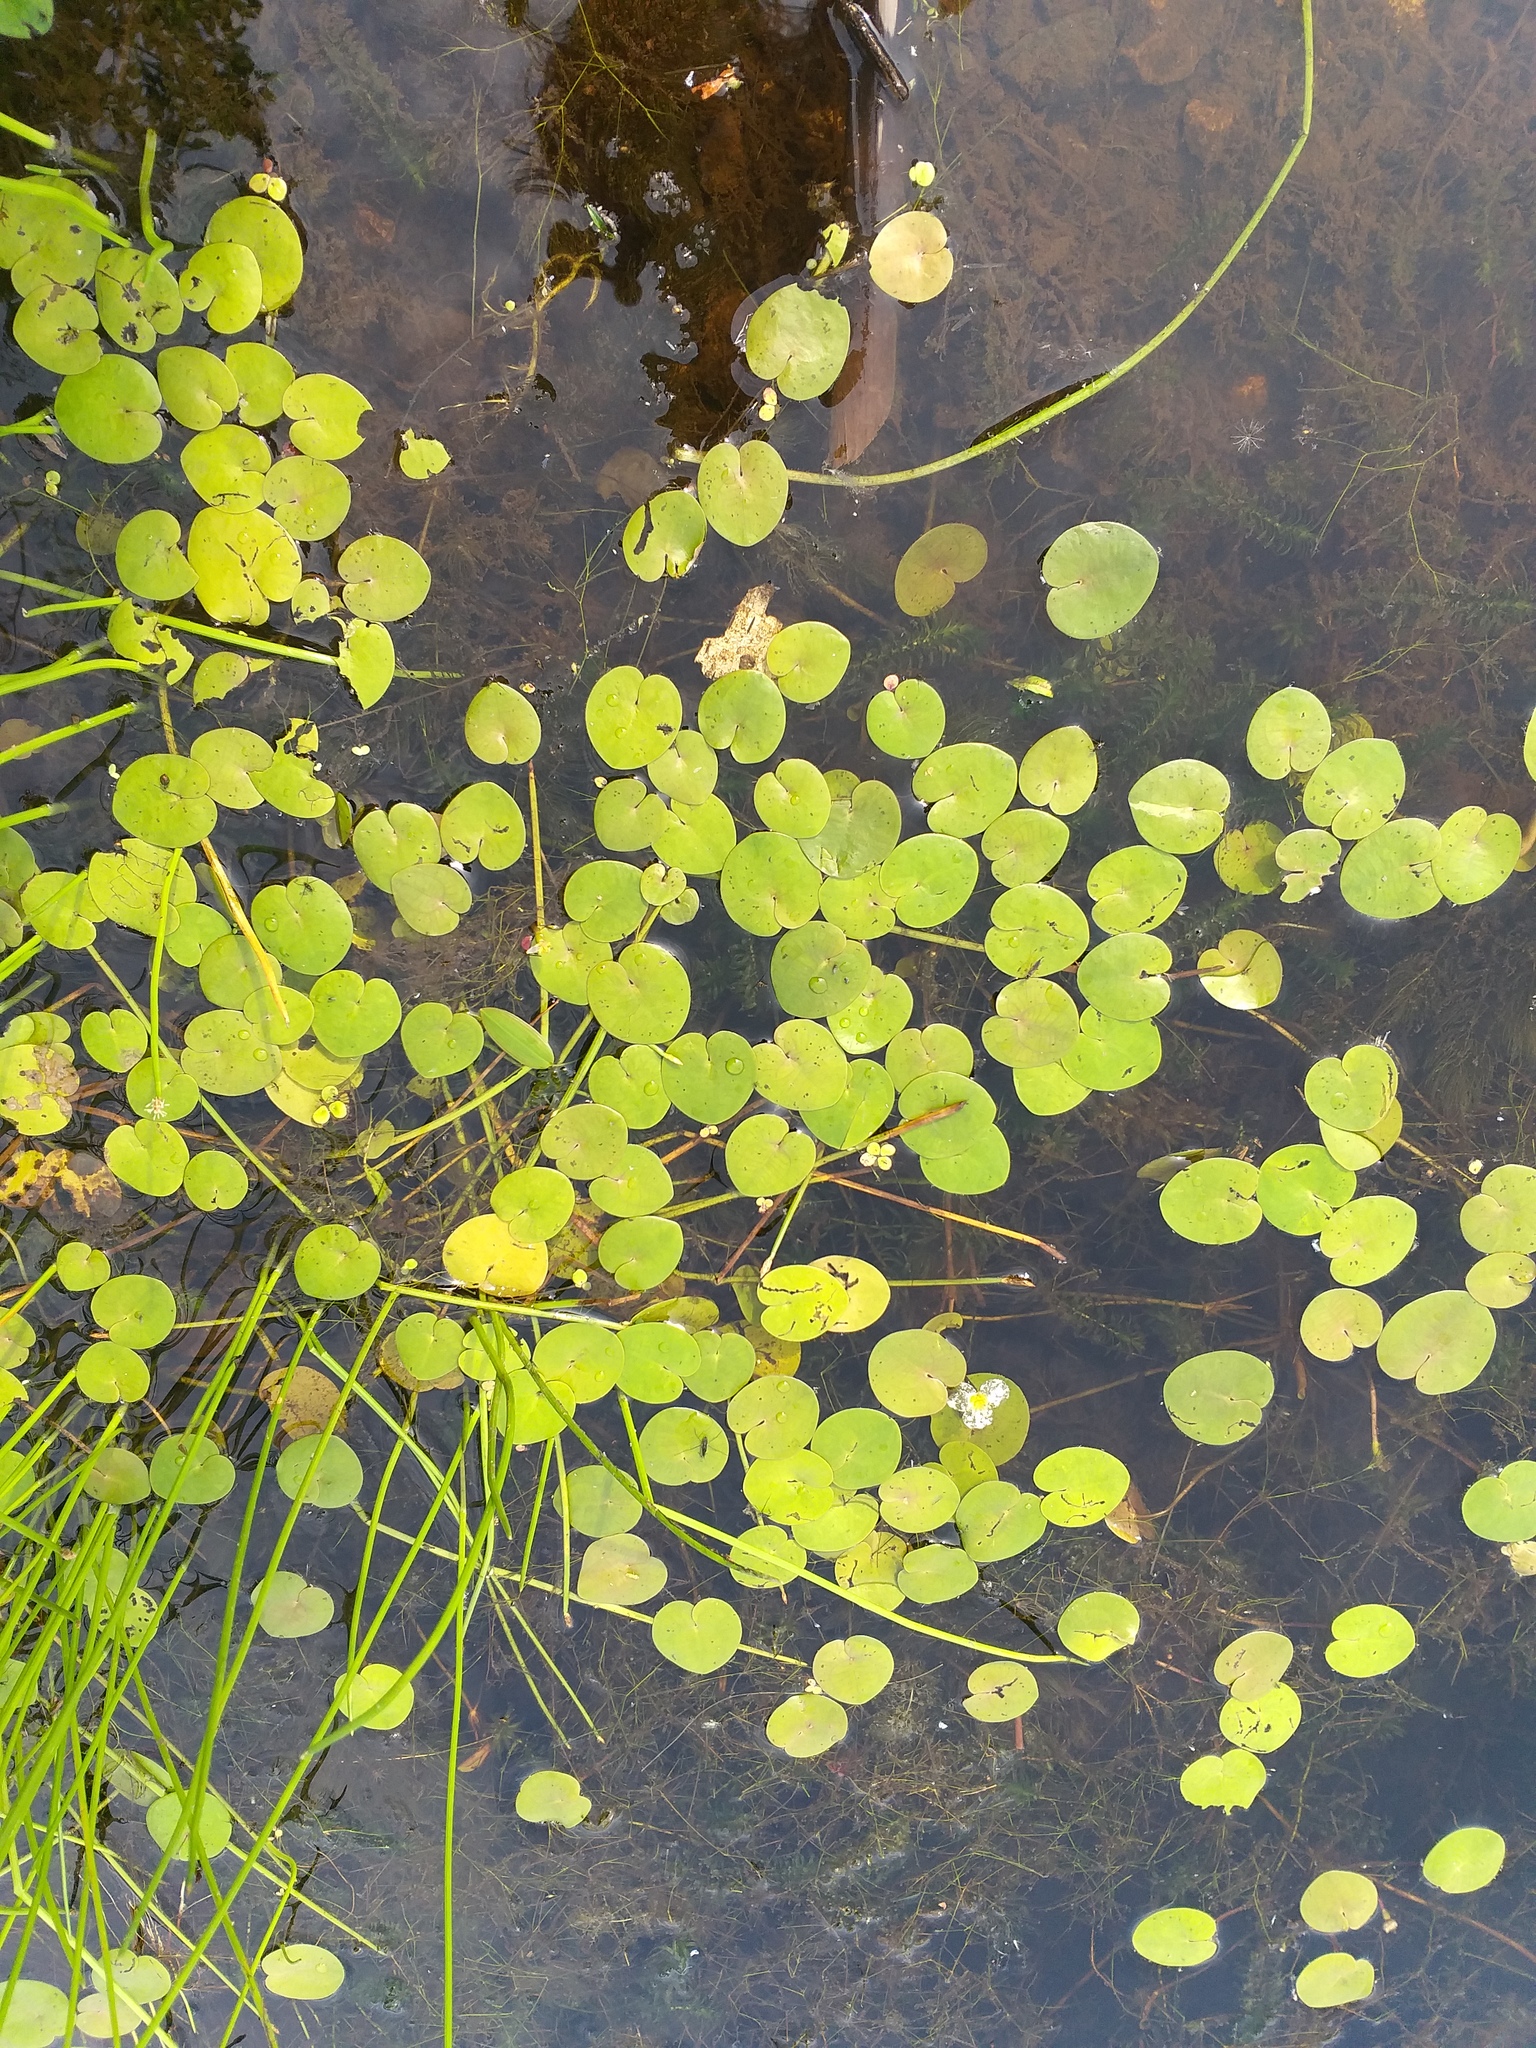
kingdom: Plantae
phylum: Tracheophyta
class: Liliopsida
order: Alismatales
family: Hydrocharitaceae
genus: Hydrocharis
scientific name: Hydrocharis morsus-ranae
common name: Frogbit
